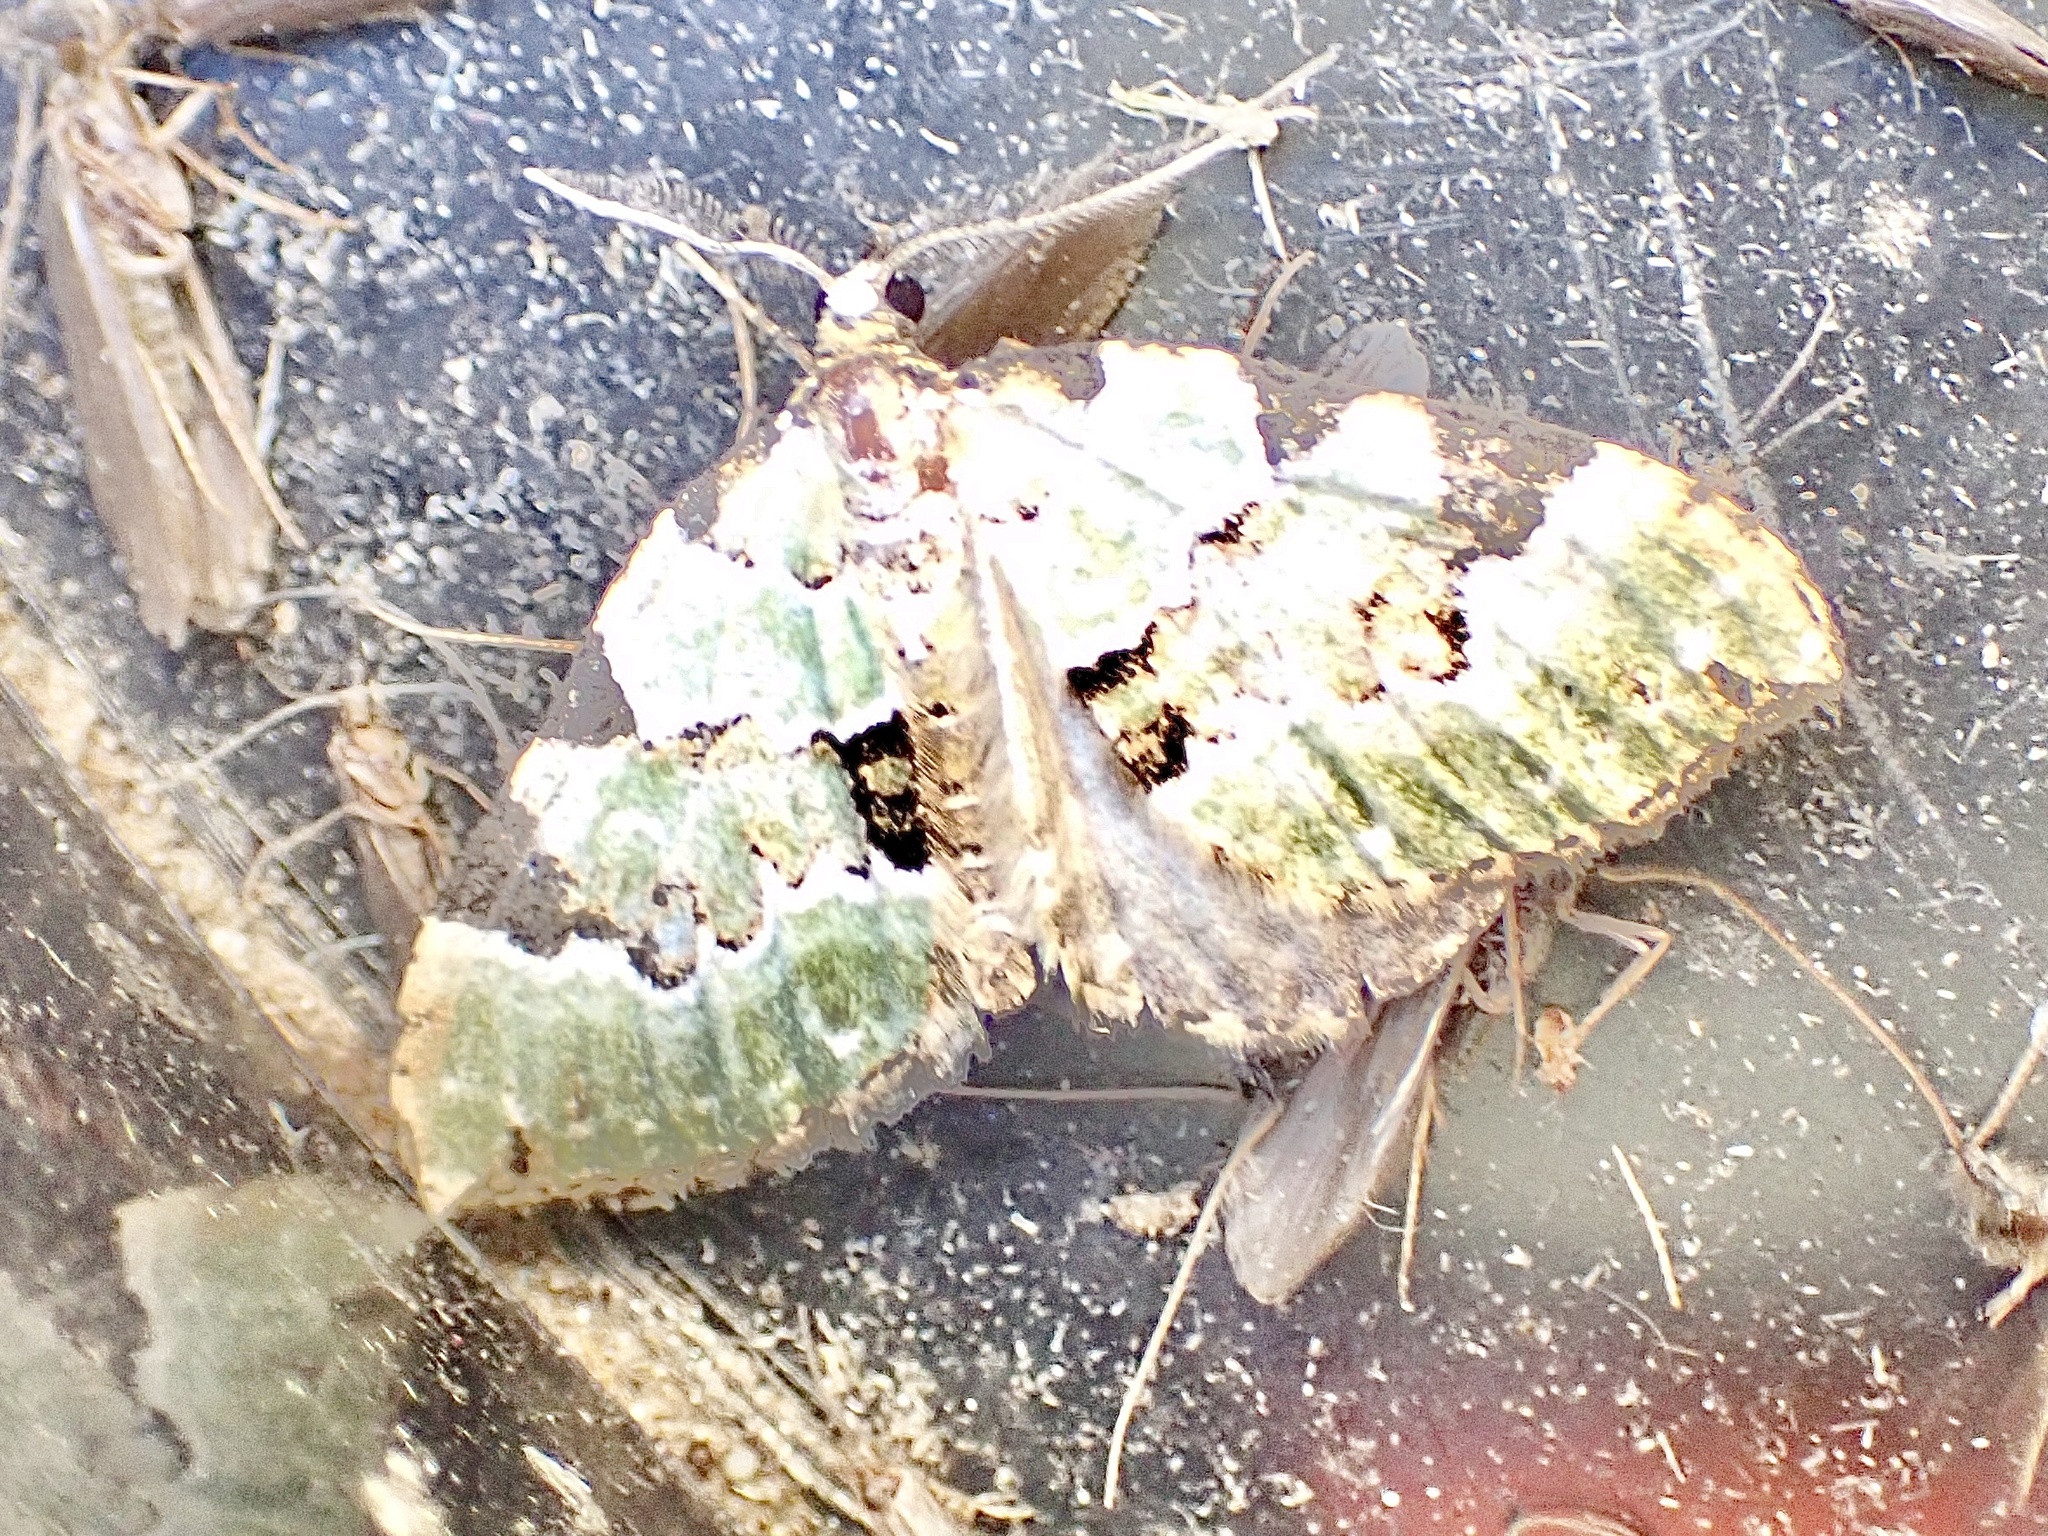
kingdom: Animalia
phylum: Arthropoda
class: Insecta
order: Lepidoptera
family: Geometridae
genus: Colostygia
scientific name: Colostygia pectinataria
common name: Green carpet
